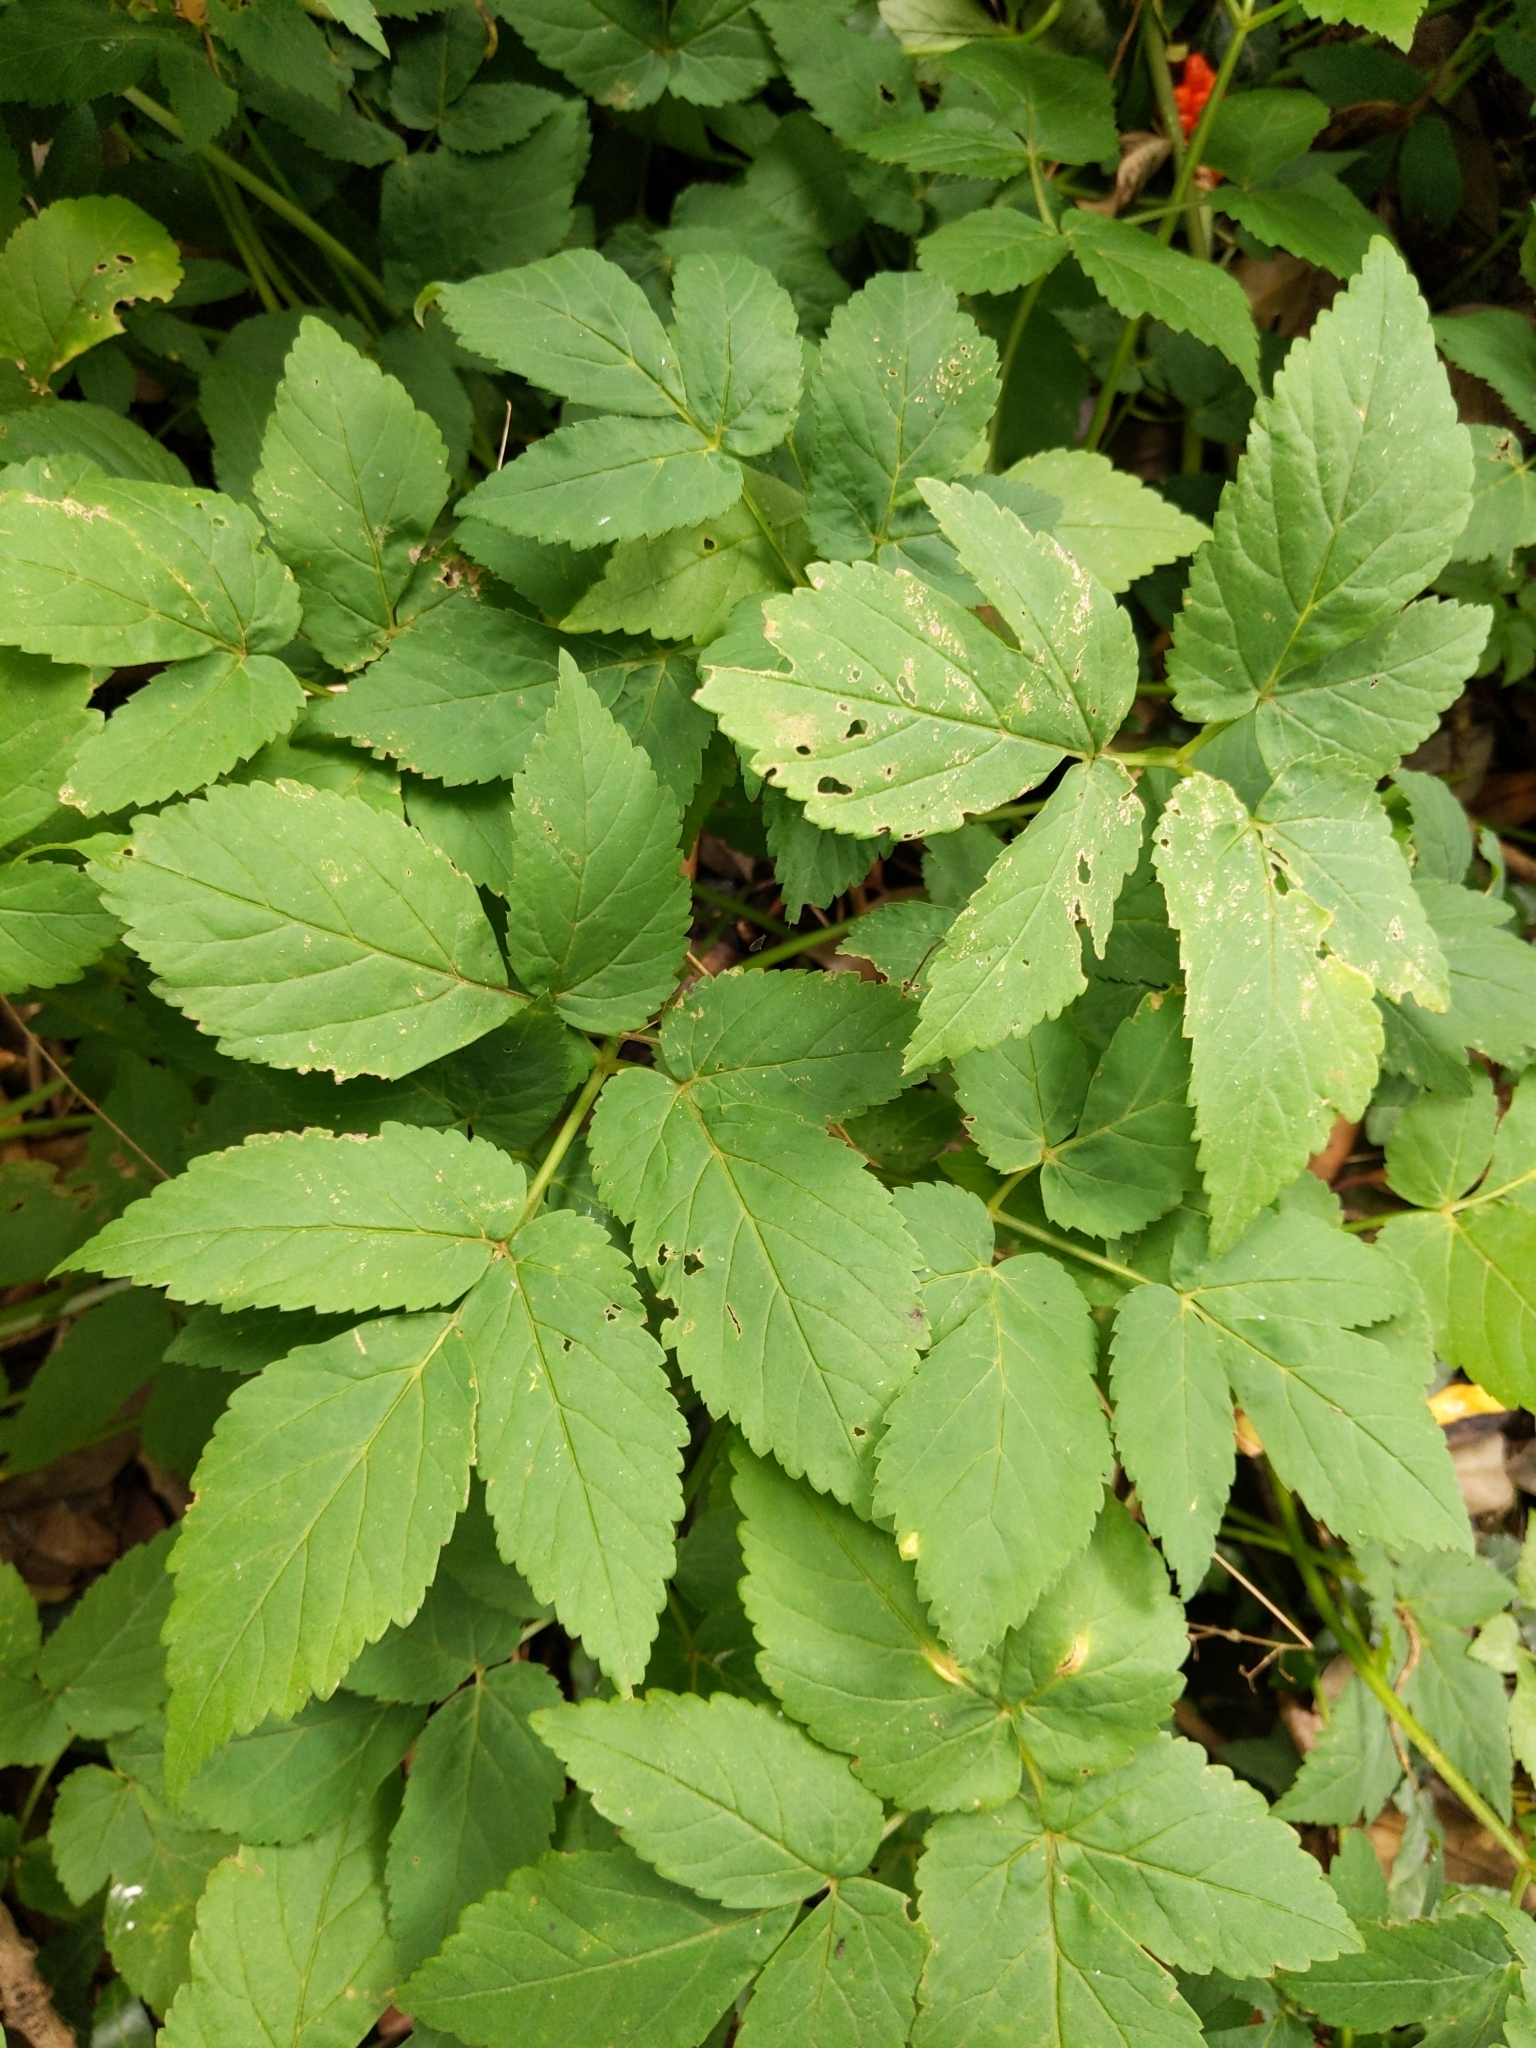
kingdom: Plantae
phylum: Tracheophyta
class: Magnoliopsida
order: Apiales
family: Apiaceae
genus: Aegopodium
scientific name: Aegopodium podagraria
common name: Ground-elder
